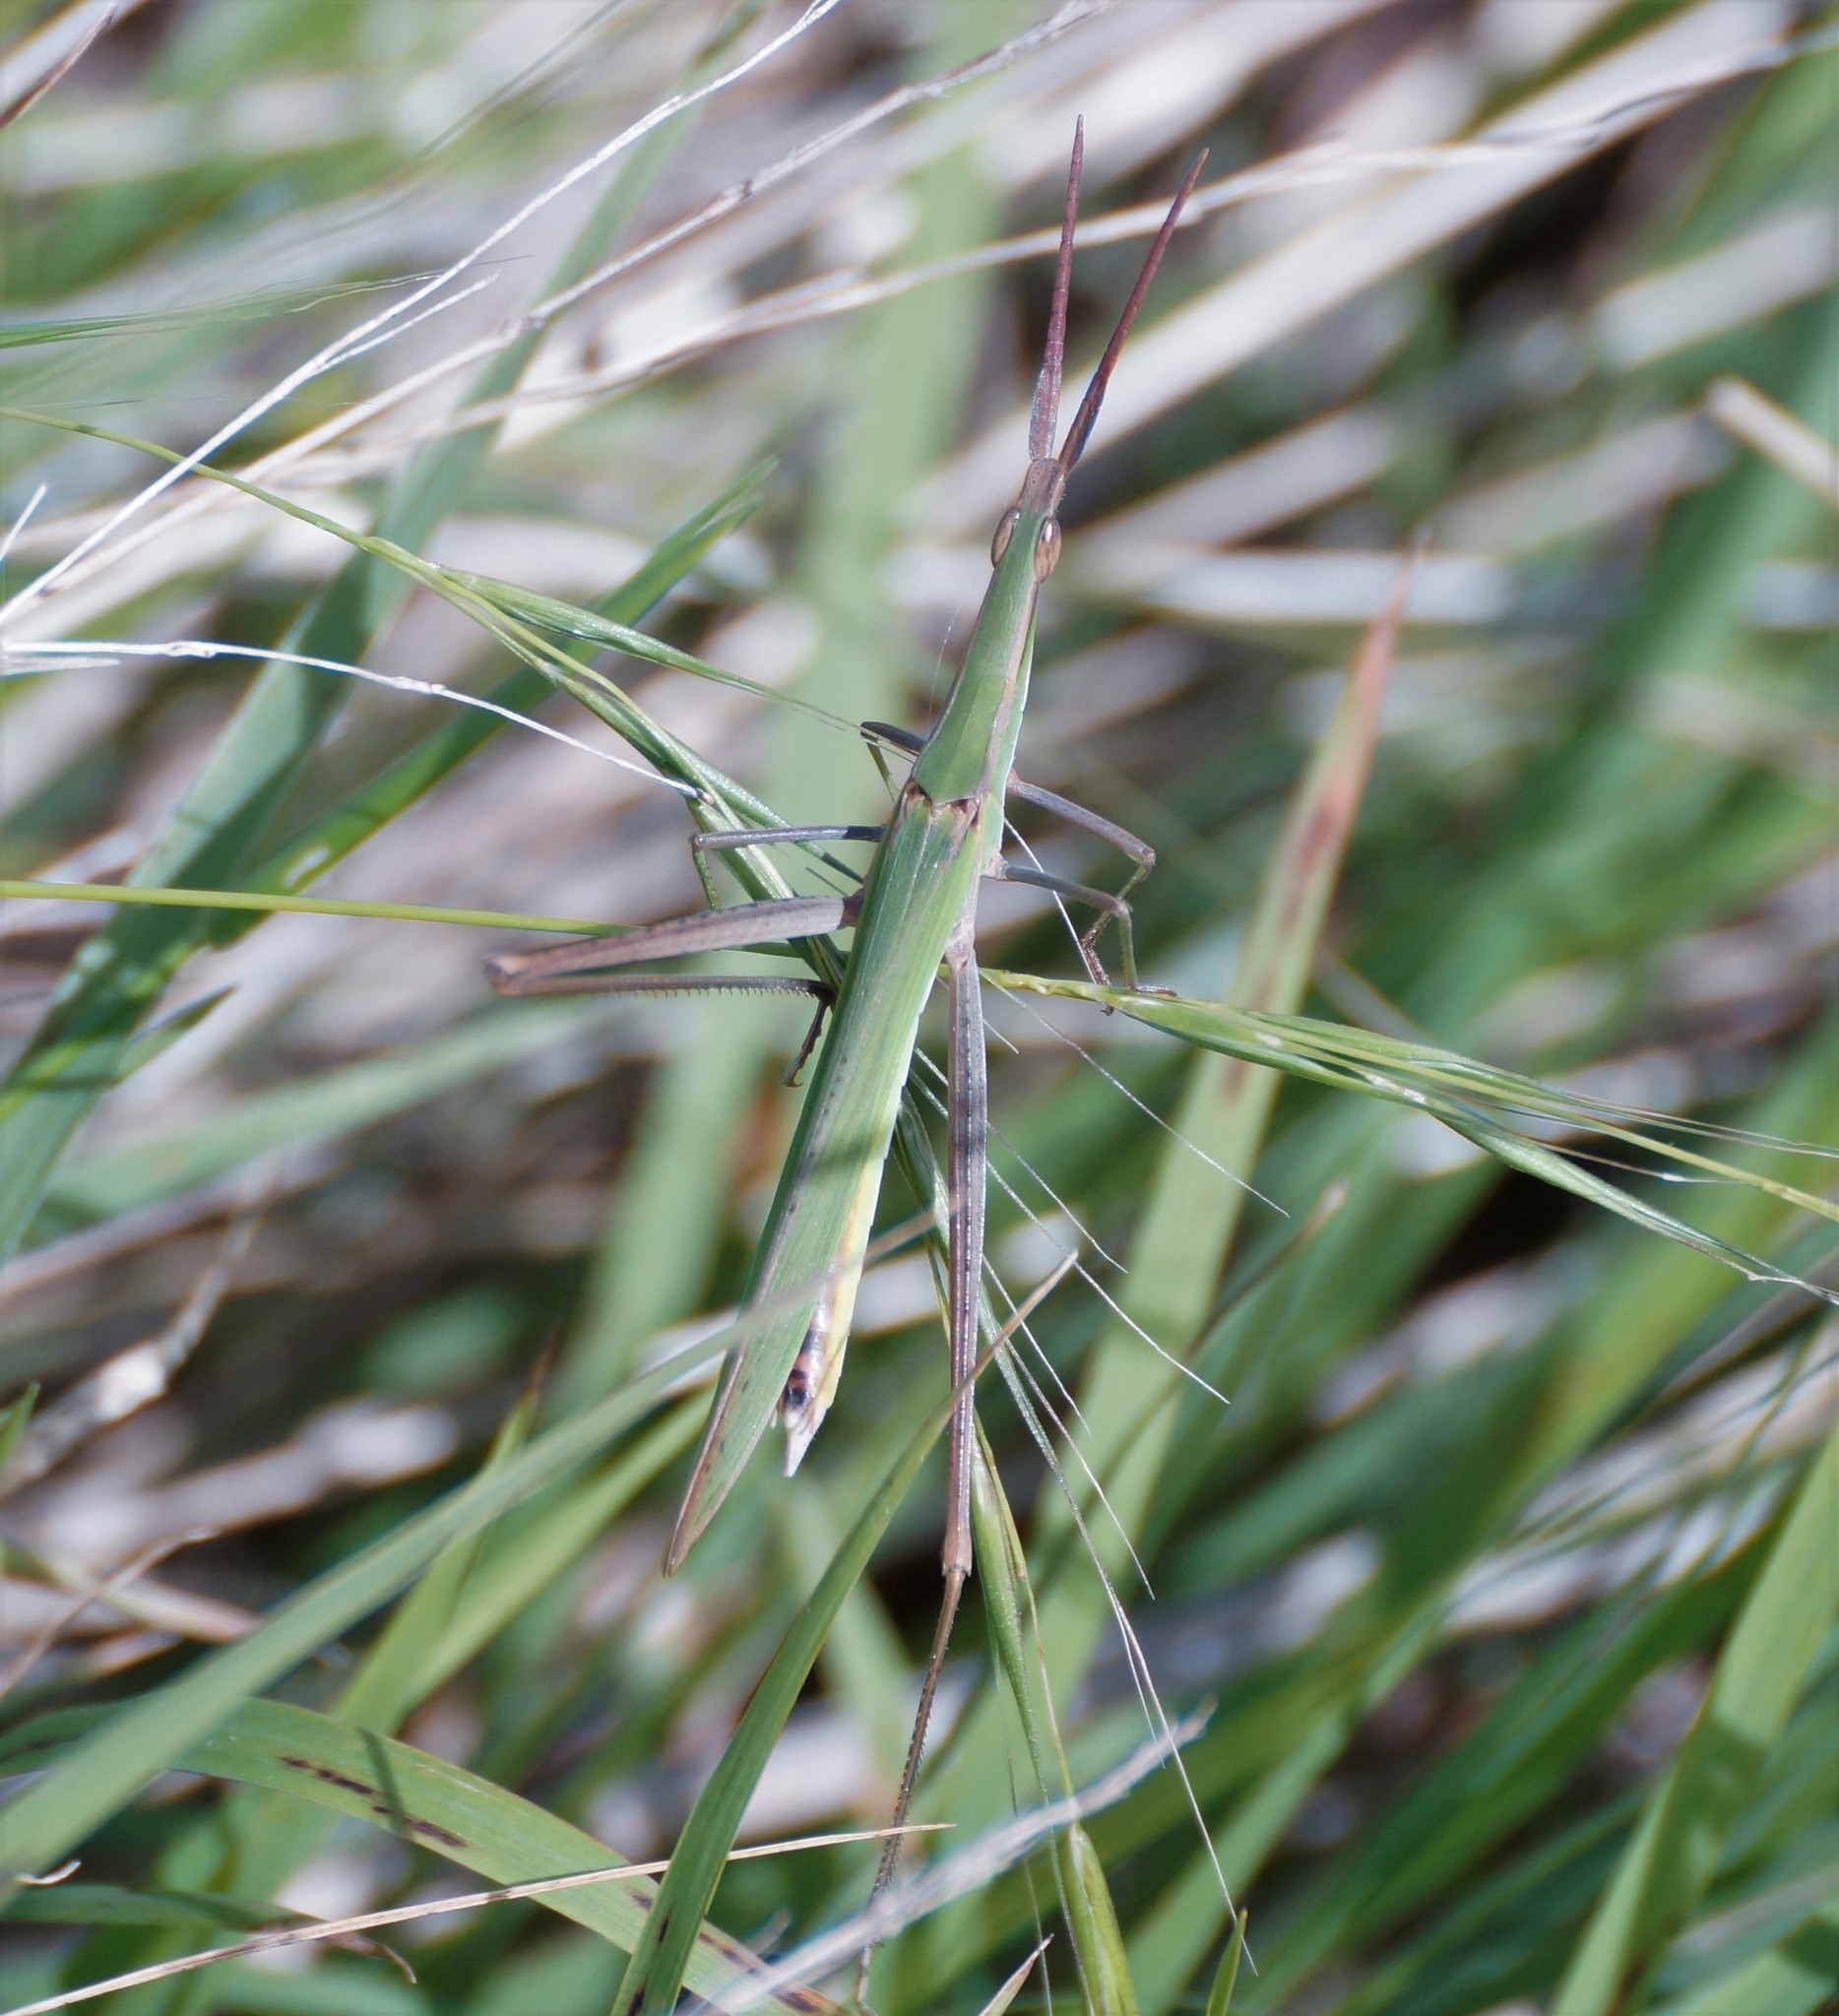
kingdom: Animalia
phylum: Arthropoda
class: Insecta
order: Orthoptera
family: Acrididae
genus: Acrida
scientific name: Acrida conica
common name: Giant green slantface
